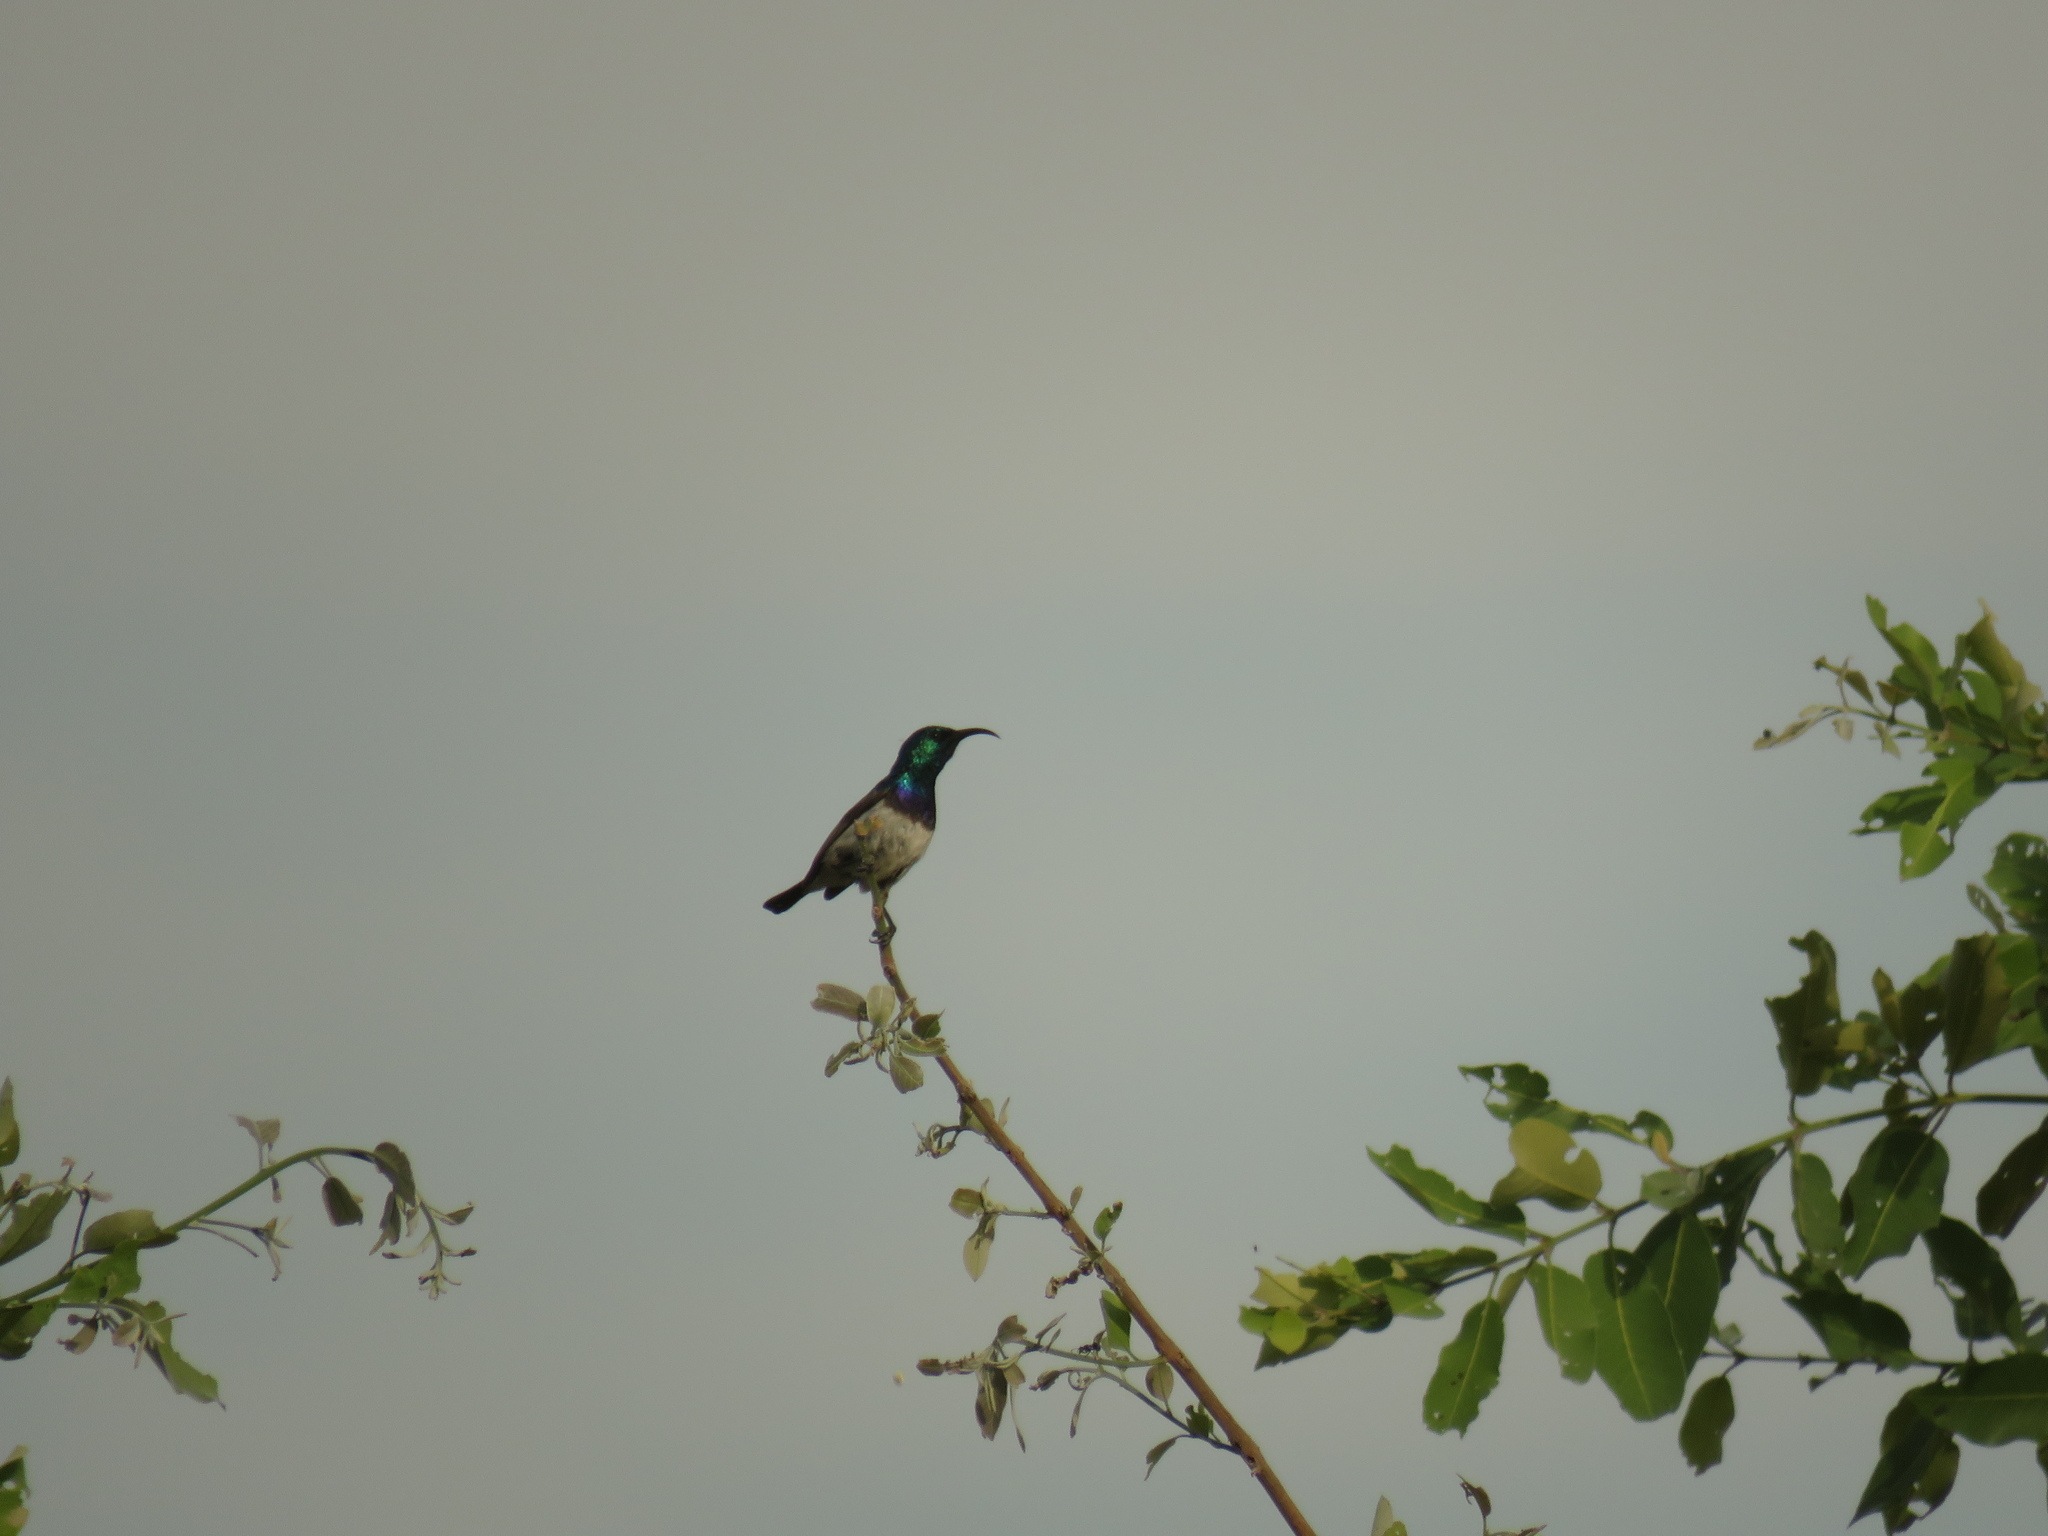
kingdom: Animalia
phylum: Chordata
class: Aves
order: Passeriformes
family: Nectariniidae
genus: Cinnyris
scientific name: Cinnyris talatala
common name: White-bellied sunbird
